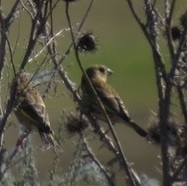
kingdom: Plantae
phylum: Tracheophyta
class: Liliopsida
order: Poales
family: Poaceae
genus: Chloris
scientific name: Chloris chloris
